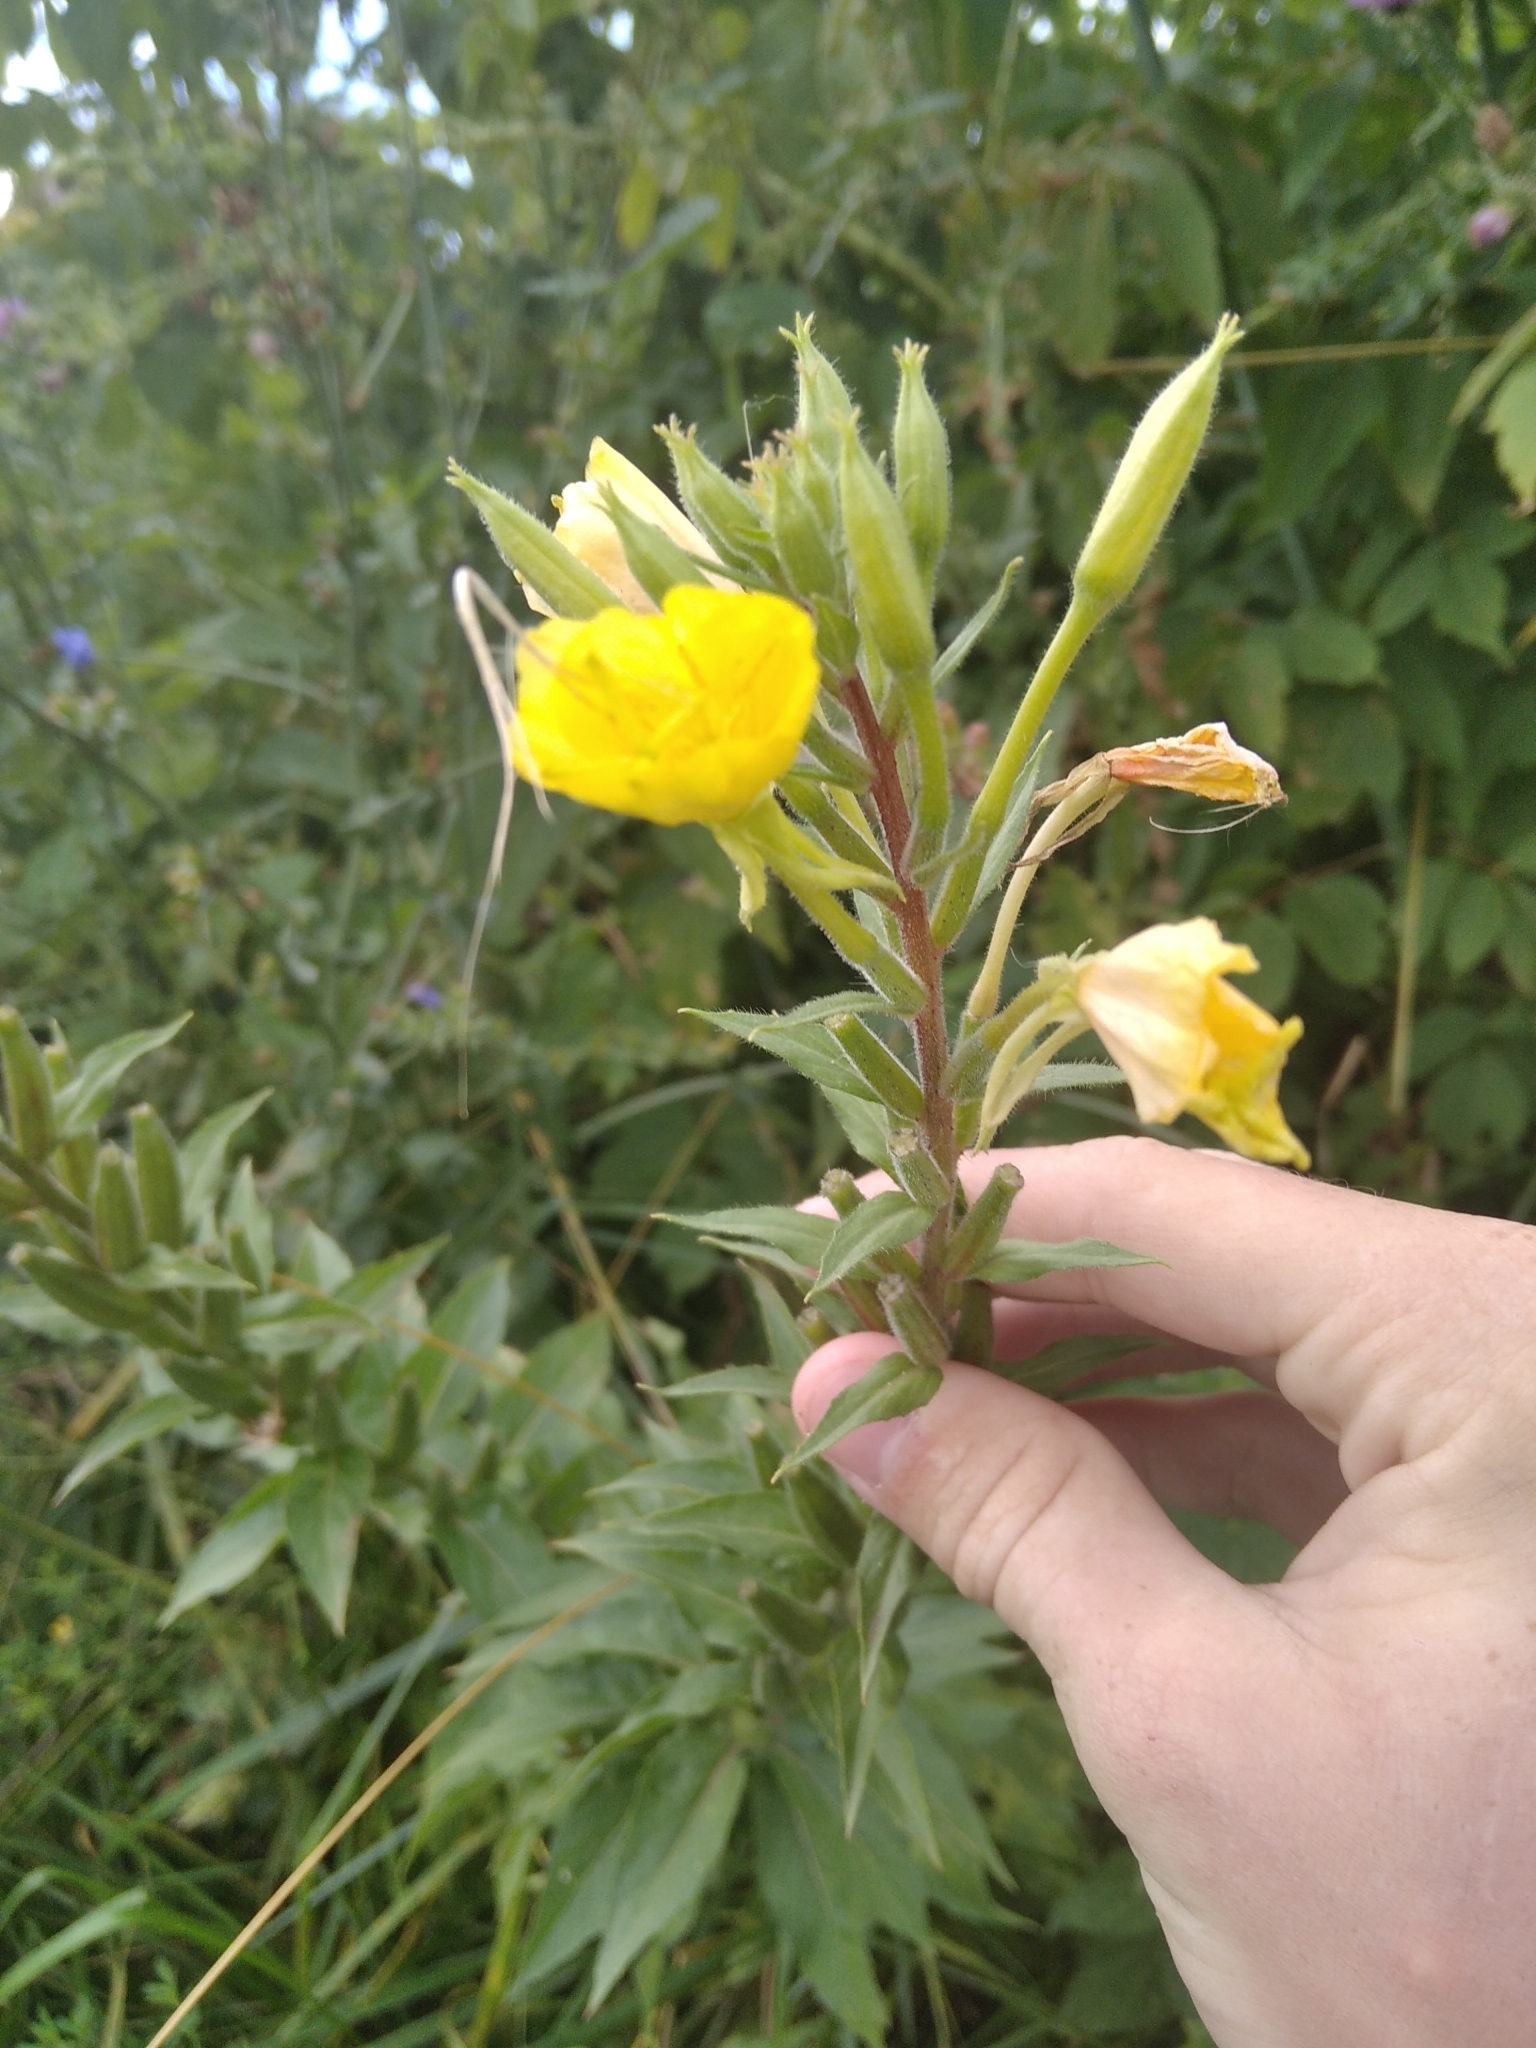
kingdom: Plantae
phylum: Tracheophyta
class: Magnoliopsida
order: Myrtales
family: Onagraceae
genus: Oenothera
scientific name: Oenothera rubricaulis
